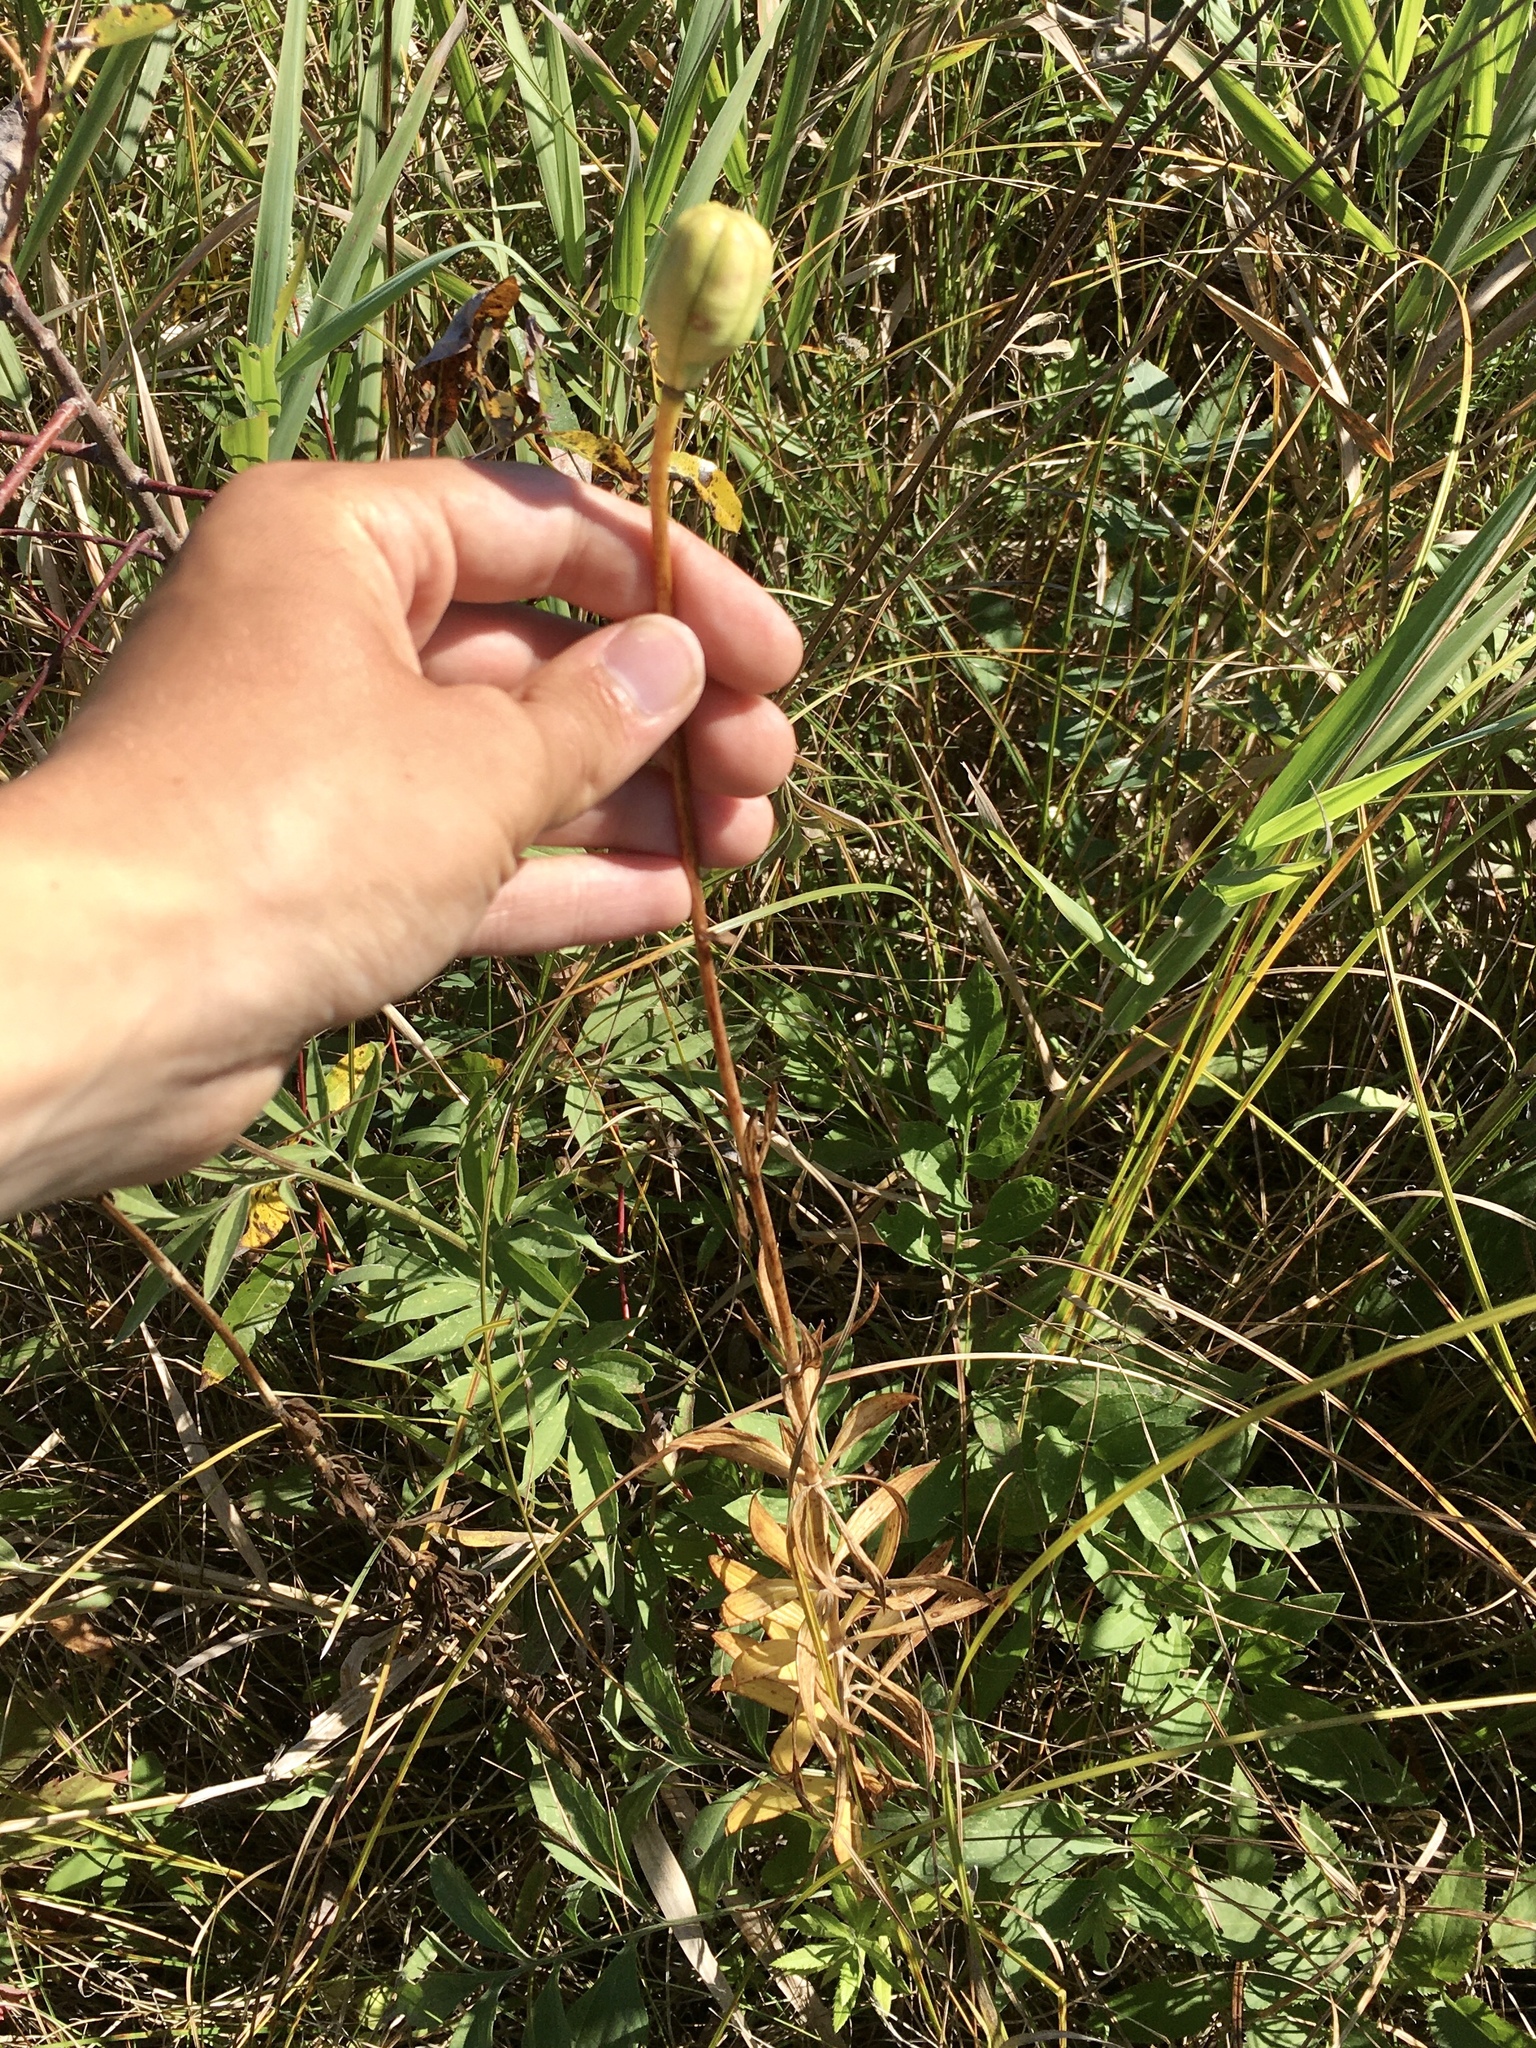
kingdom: Plantae
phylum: Tracheophyta
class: Liliopsida
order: Liliales
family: Liliaceae
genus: Lilium
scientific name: Lilium philadelphicum
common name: Red lily
